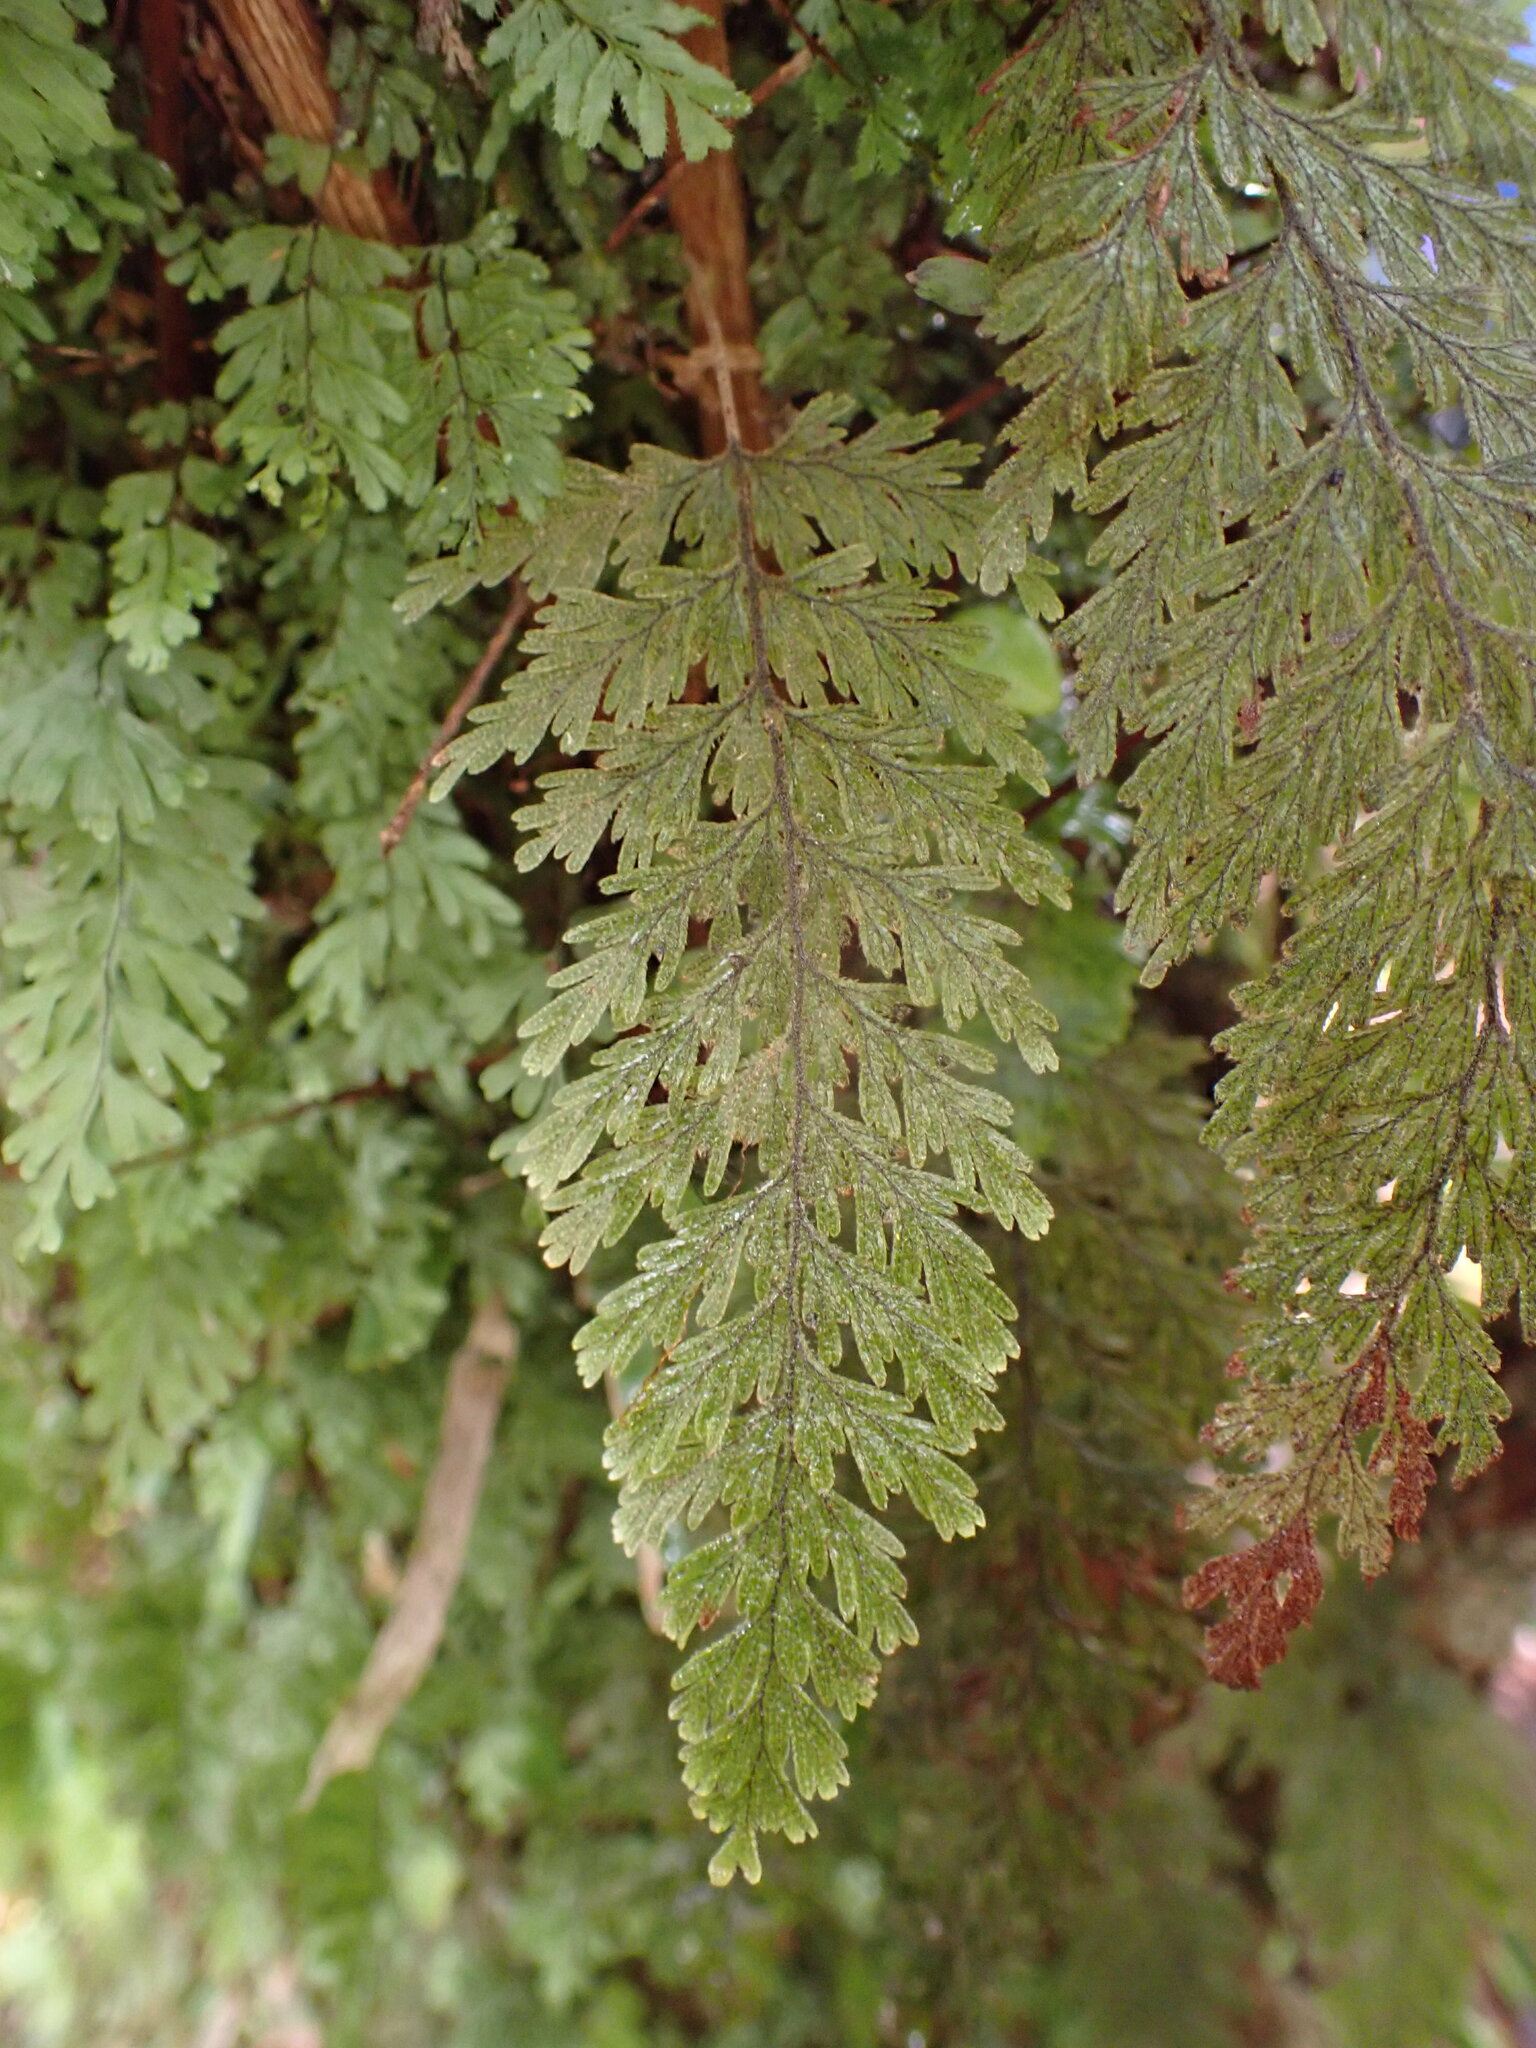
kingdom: Plantae
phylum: Tracheophyta
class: Polypodiopsida
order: Hymenophyllales
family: Hymenophyllaceae
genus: Hymenophyllum
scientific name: Hymenophyllum frankliniae
